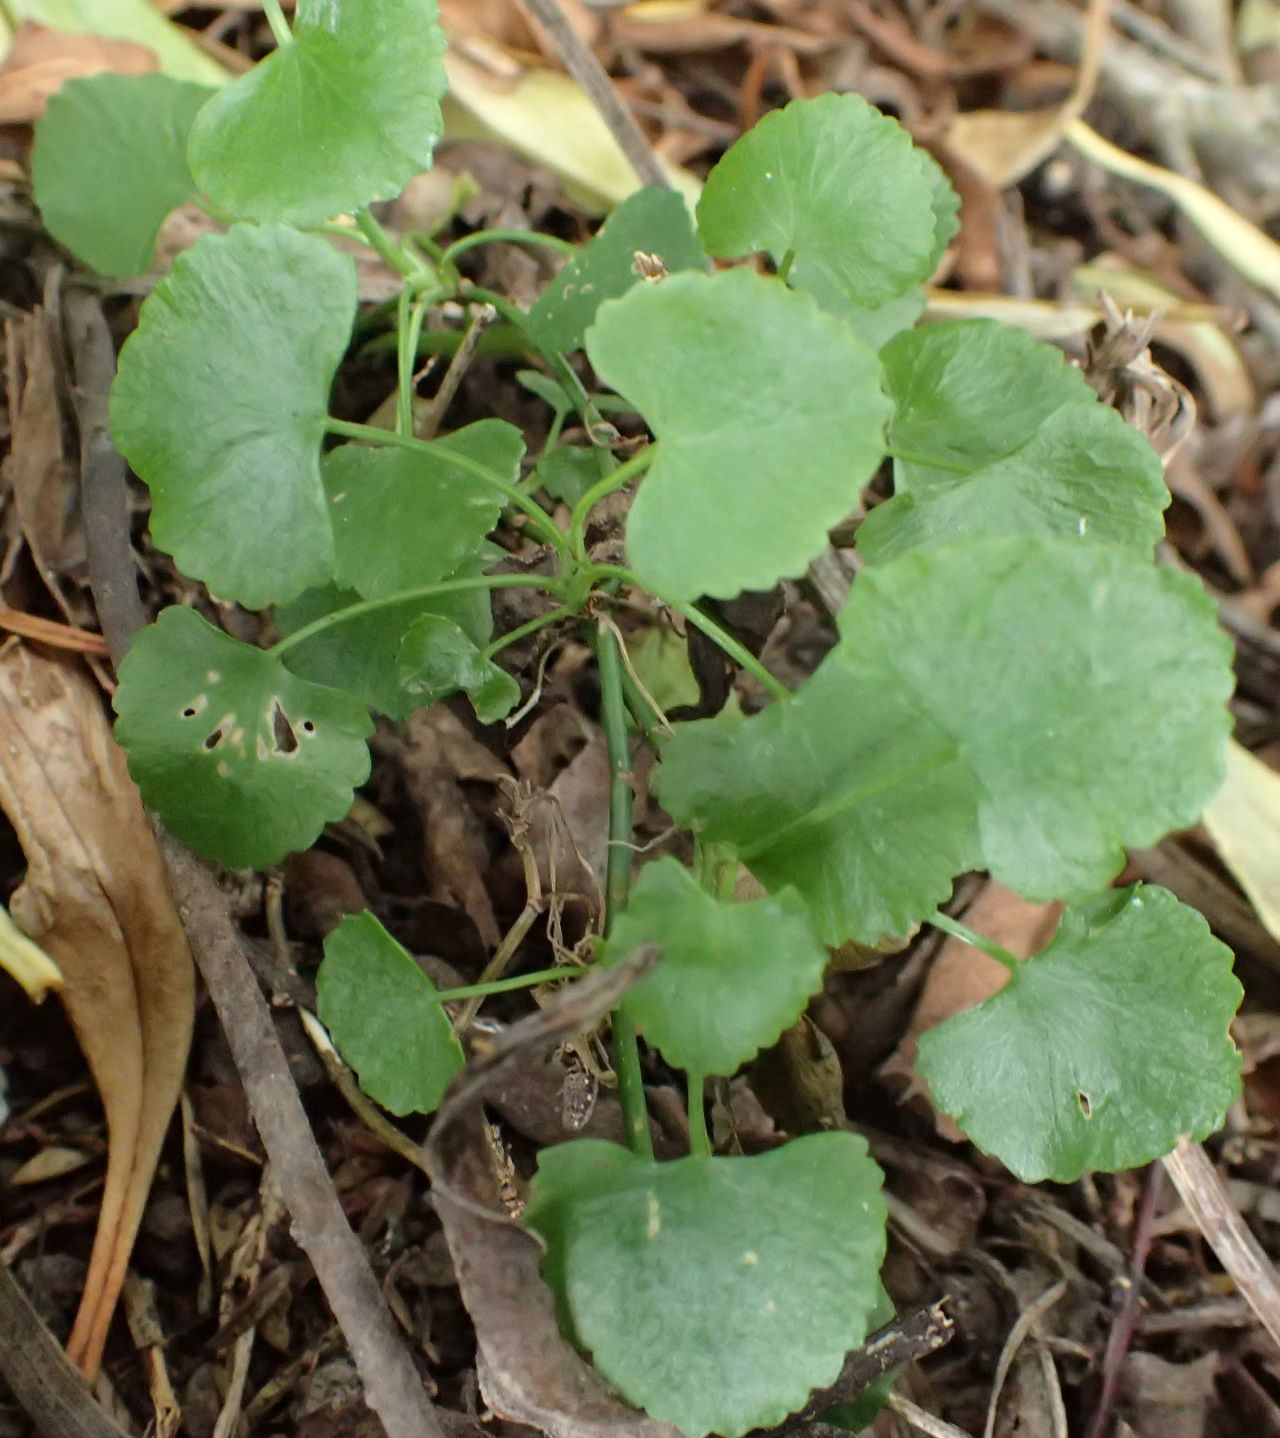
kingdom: Plantae
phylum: Tracheophyta
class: Magnoliopsida
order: Apiales
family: Apiaceae
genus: Scandia
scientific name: Scandia geniculata
